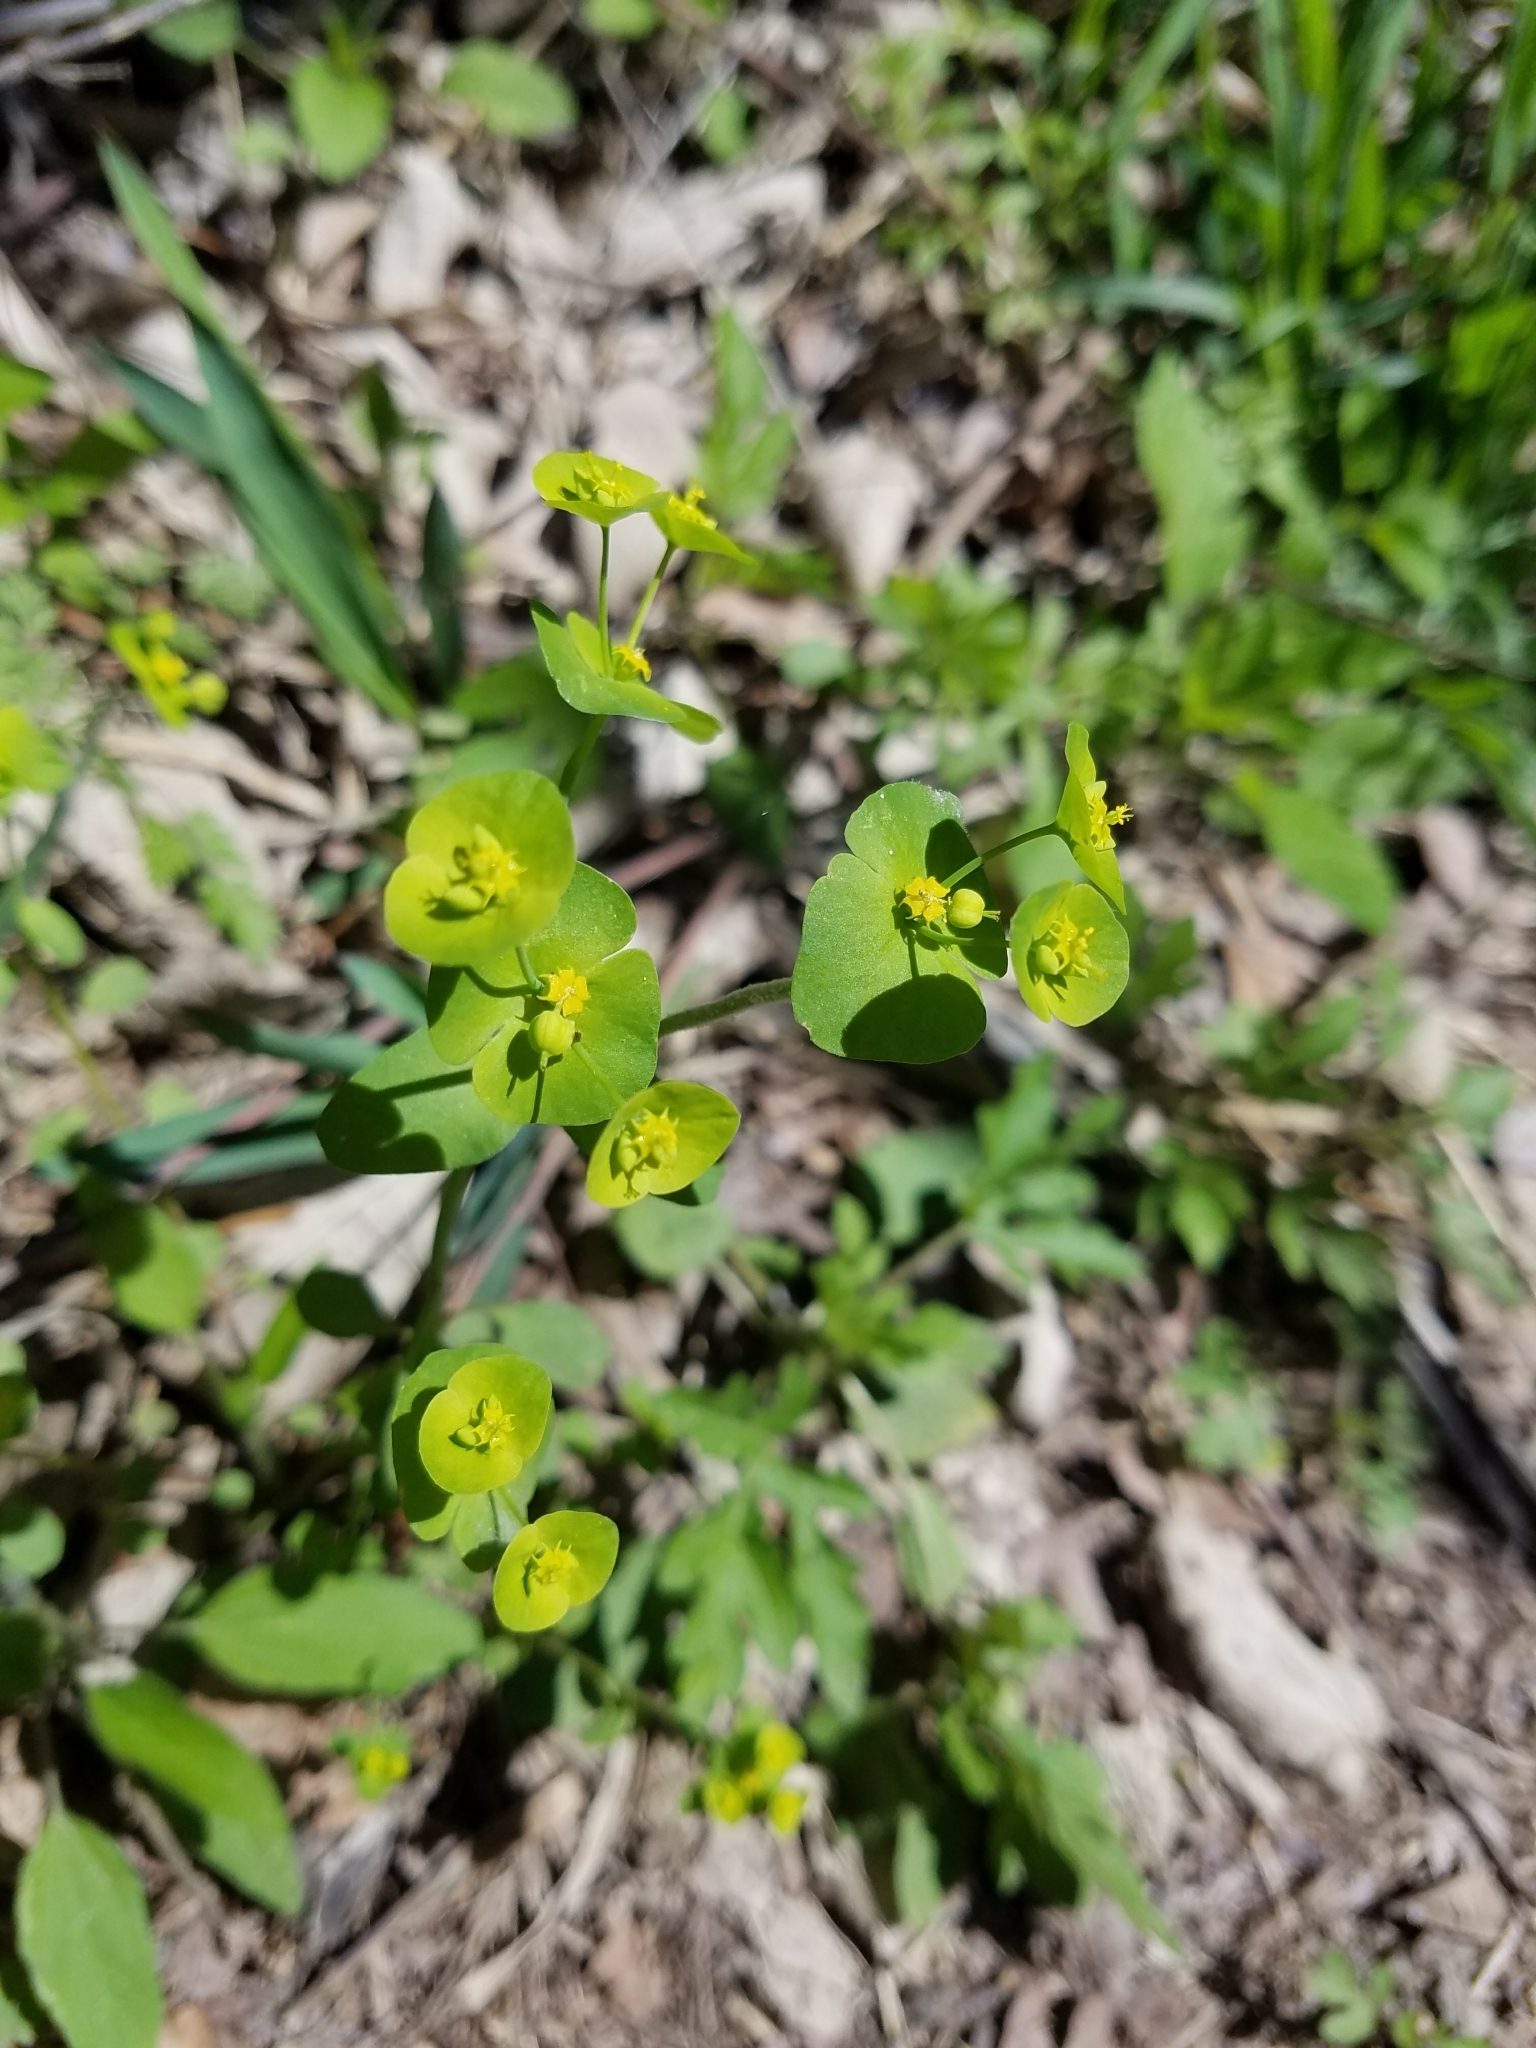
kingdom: Plantae
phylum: Tracheophyta
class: Magnoliopsida
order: Malpighiales
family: Euphorbiaceae
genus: Euphorbia
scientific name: Euphorbia roemeriana
